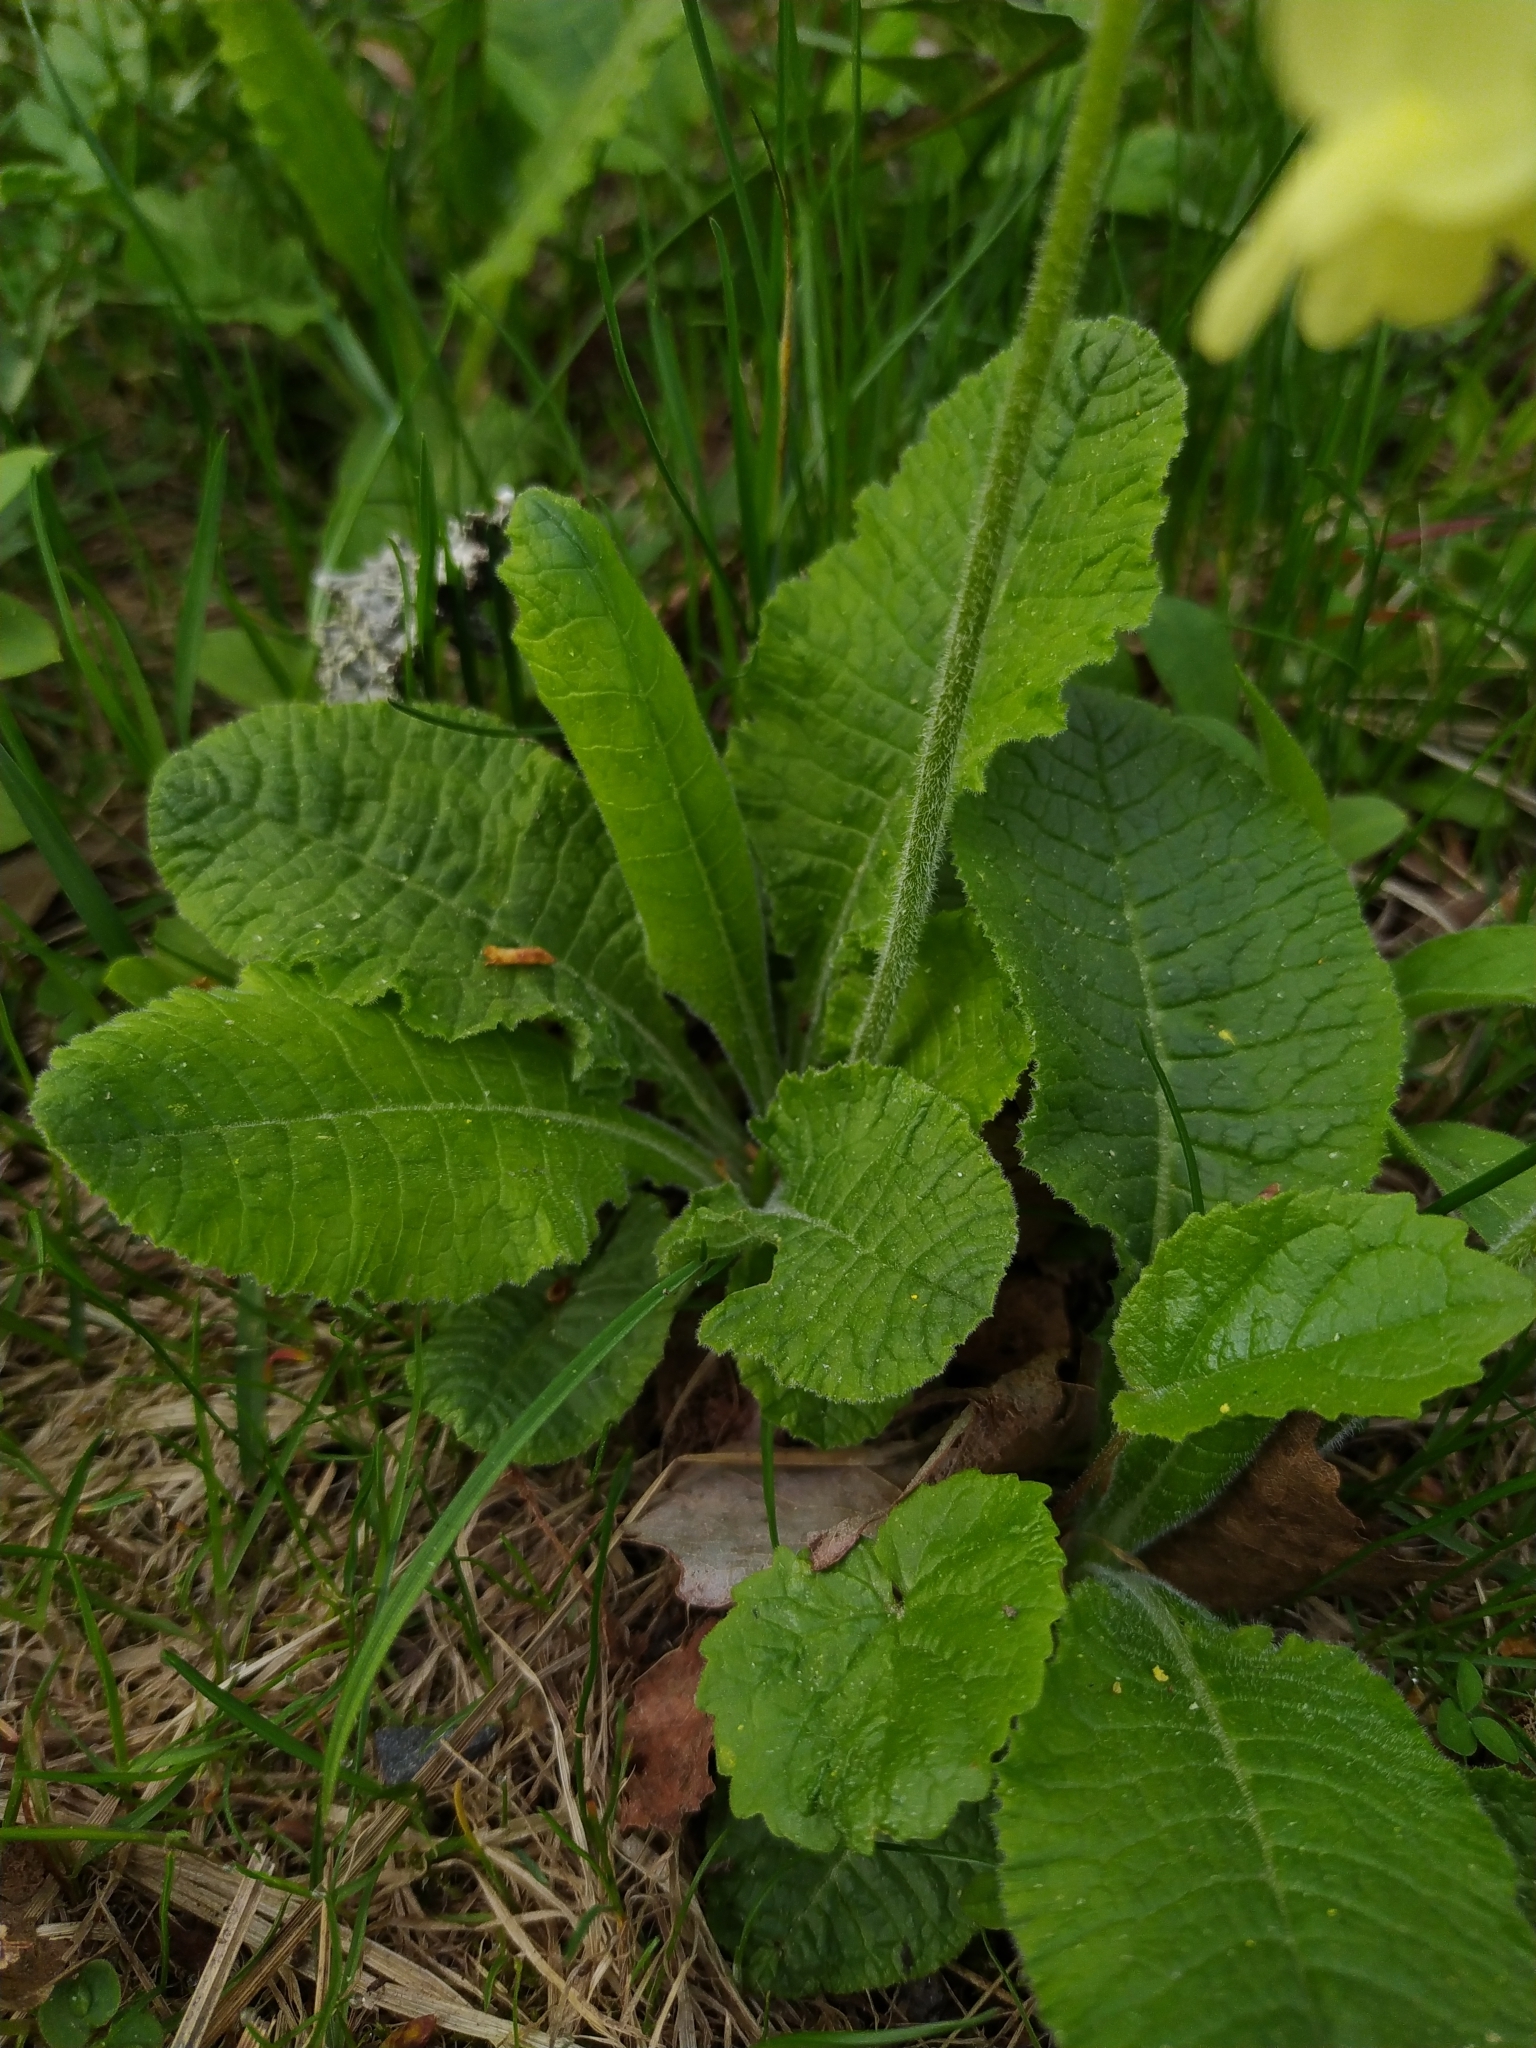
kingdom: Plantae
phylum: Tracheophyta
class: Magnoliopsida
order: Ericales
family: Primulaceae
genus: Primula
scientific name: Primula elatior
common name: Oxlip
